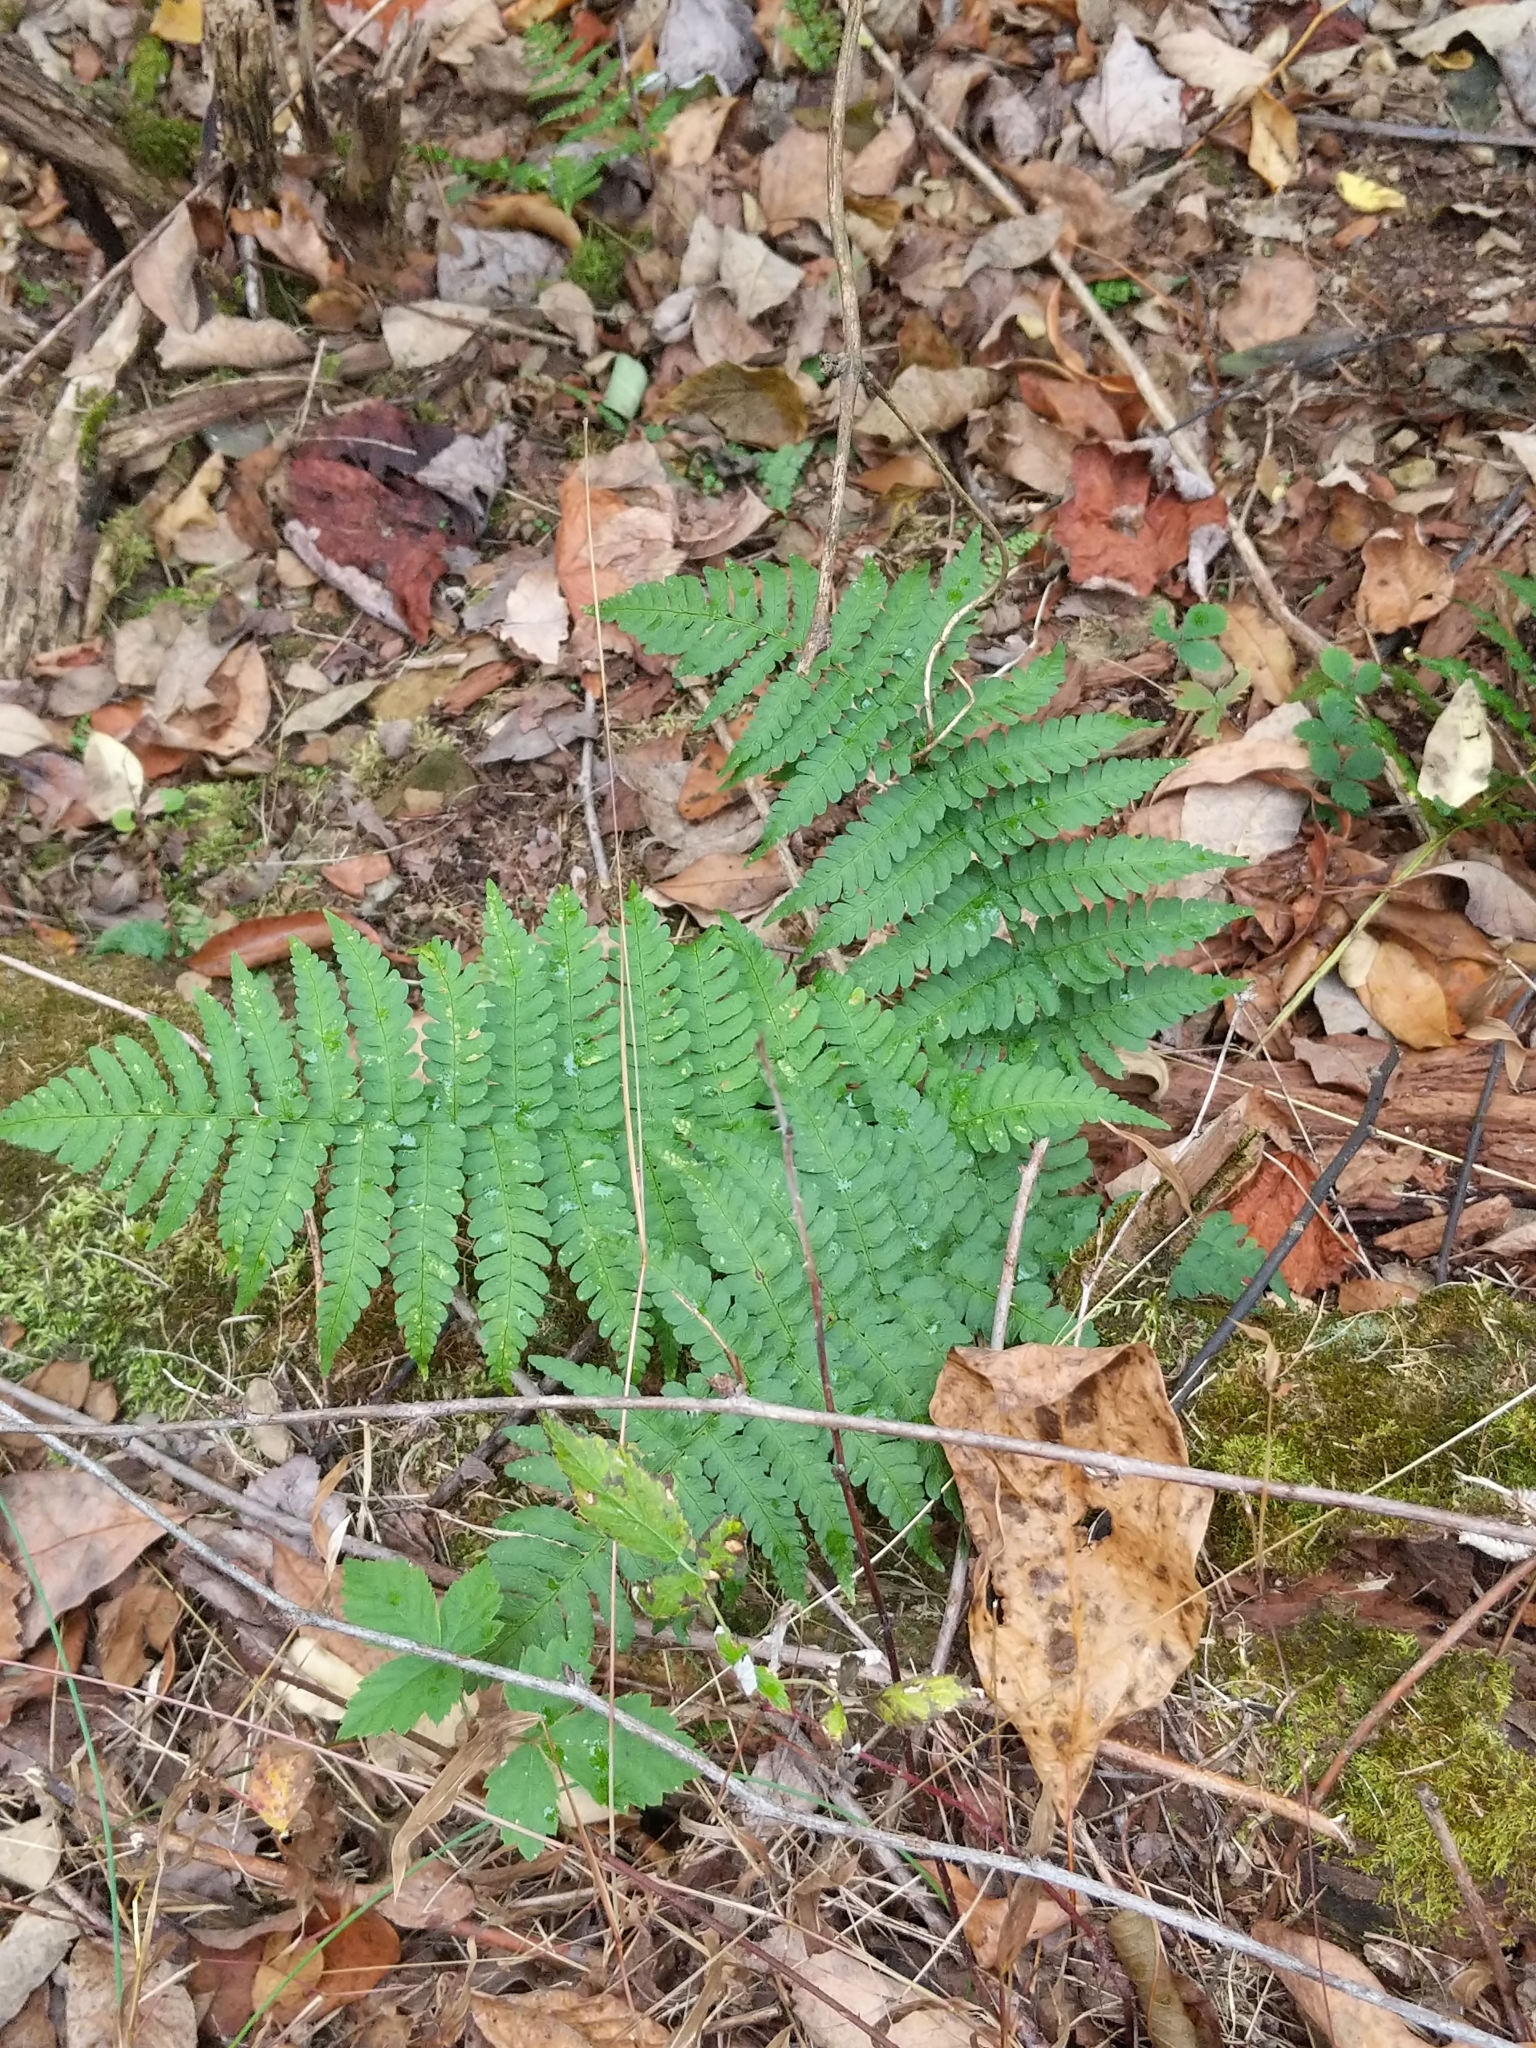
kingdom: Plantae
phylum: Tracheophyta
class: Polypodiopsida
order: Polypodiales
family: Dryopteridaceae
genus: Dryopteris
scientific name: Dryopteris marginalis
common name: Marginal wood fern
